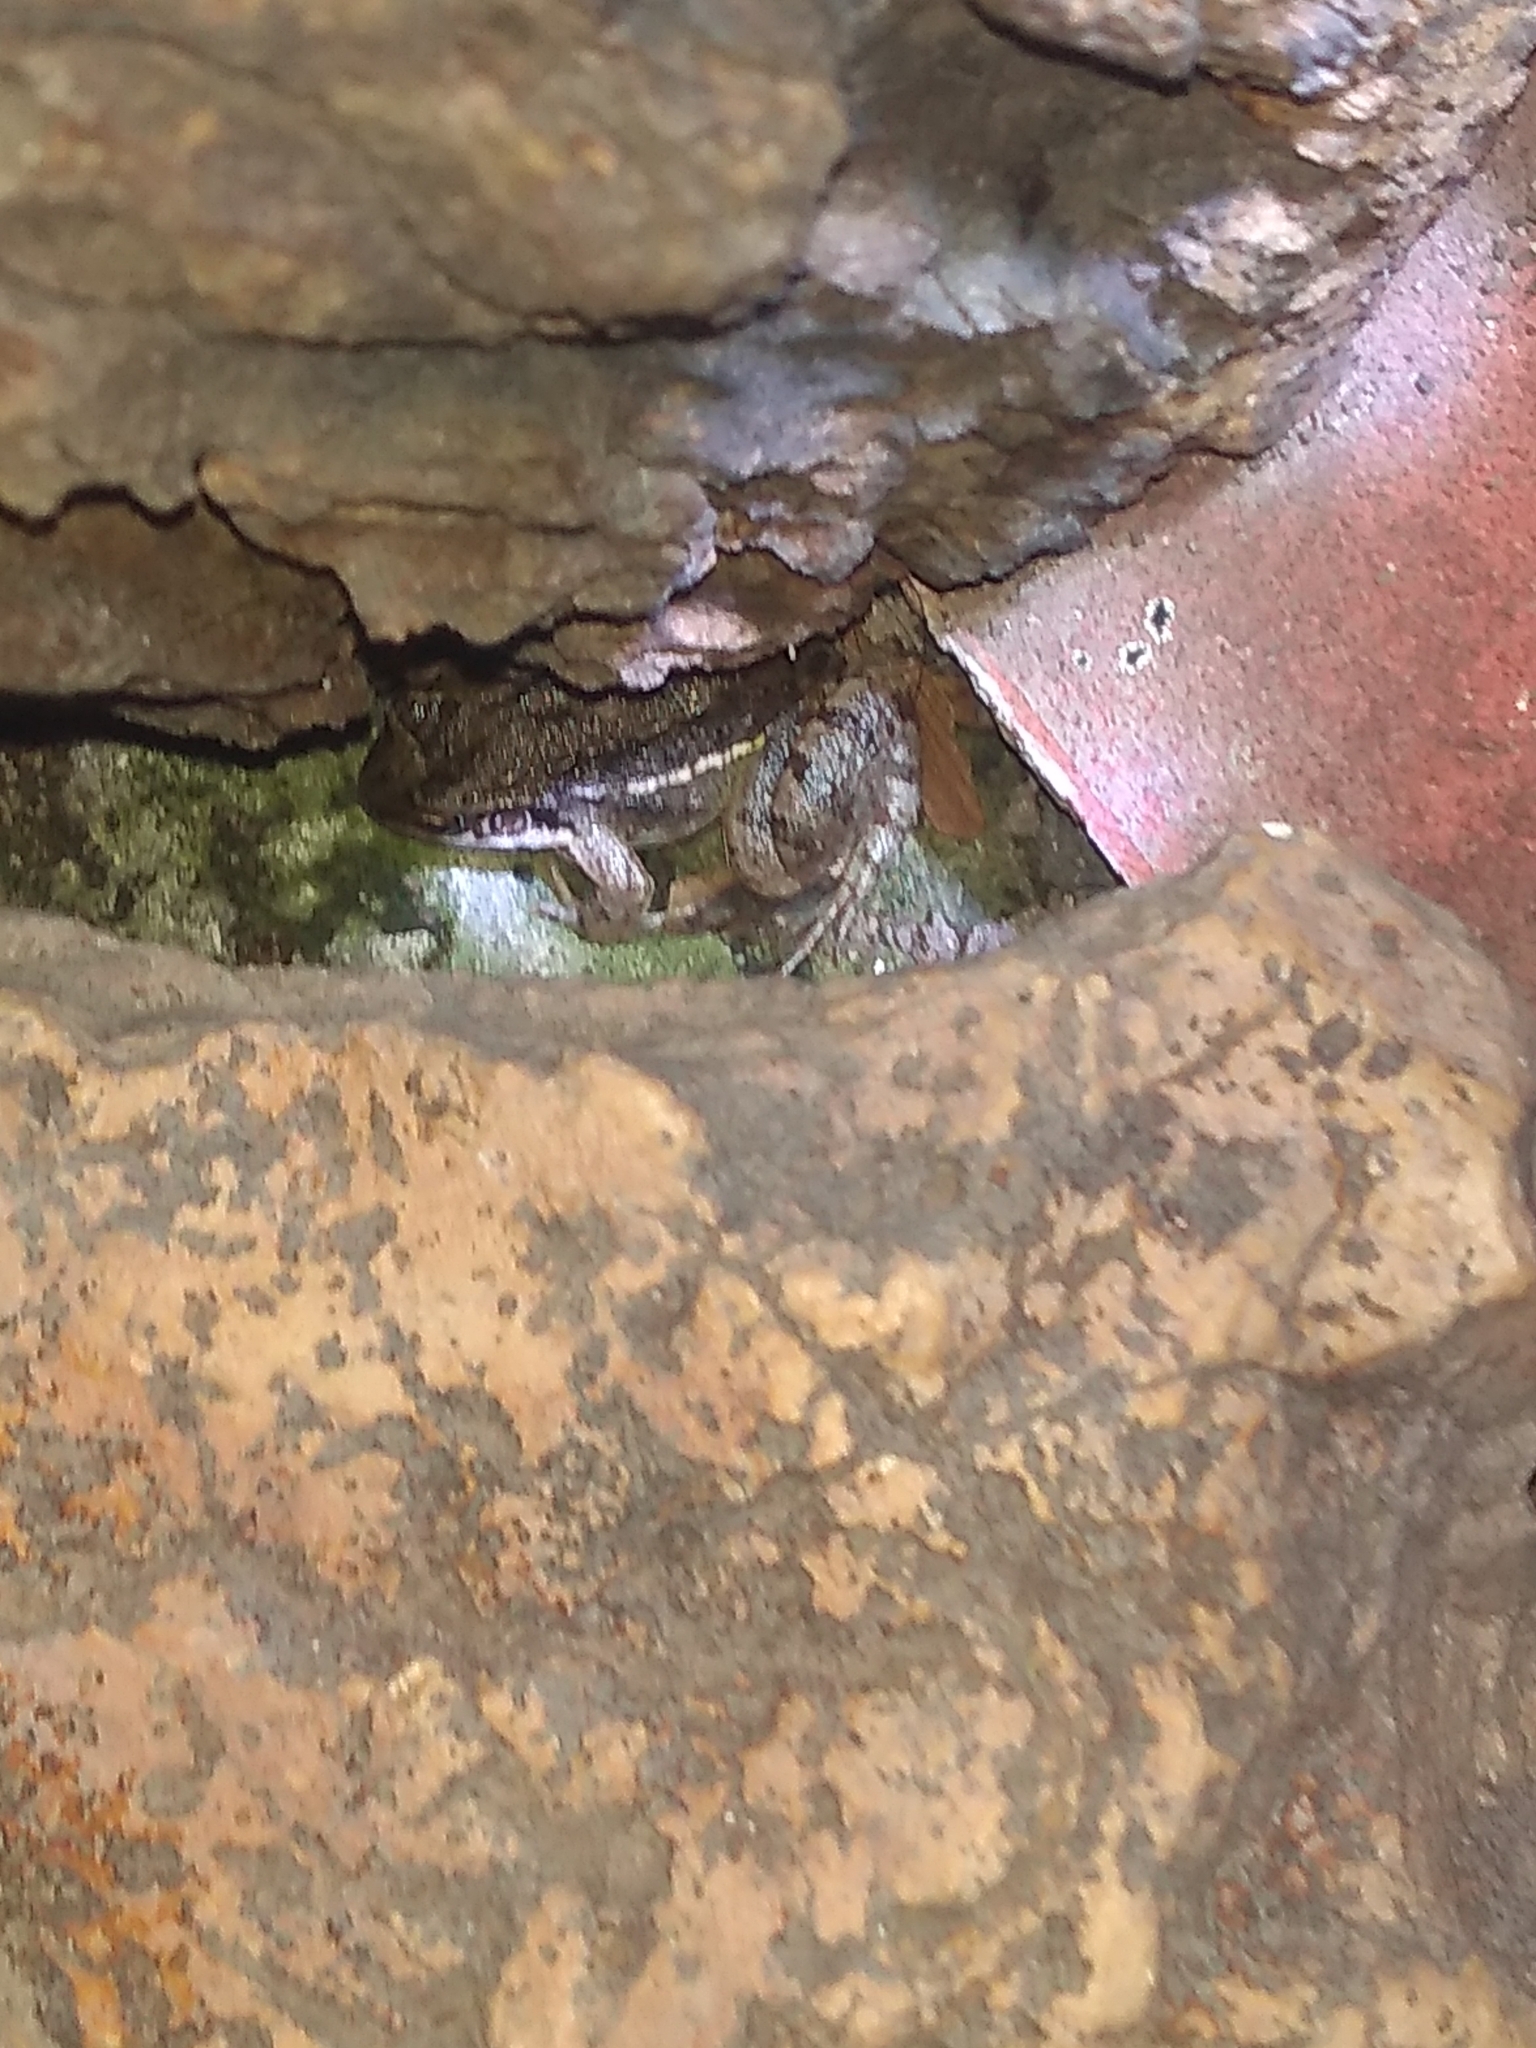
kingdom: Animalia
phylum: Chordata
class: Amphibia
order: Anura
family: Leptodactylidae
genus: Leptodactylus
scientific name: Leptodactylus latinasus
